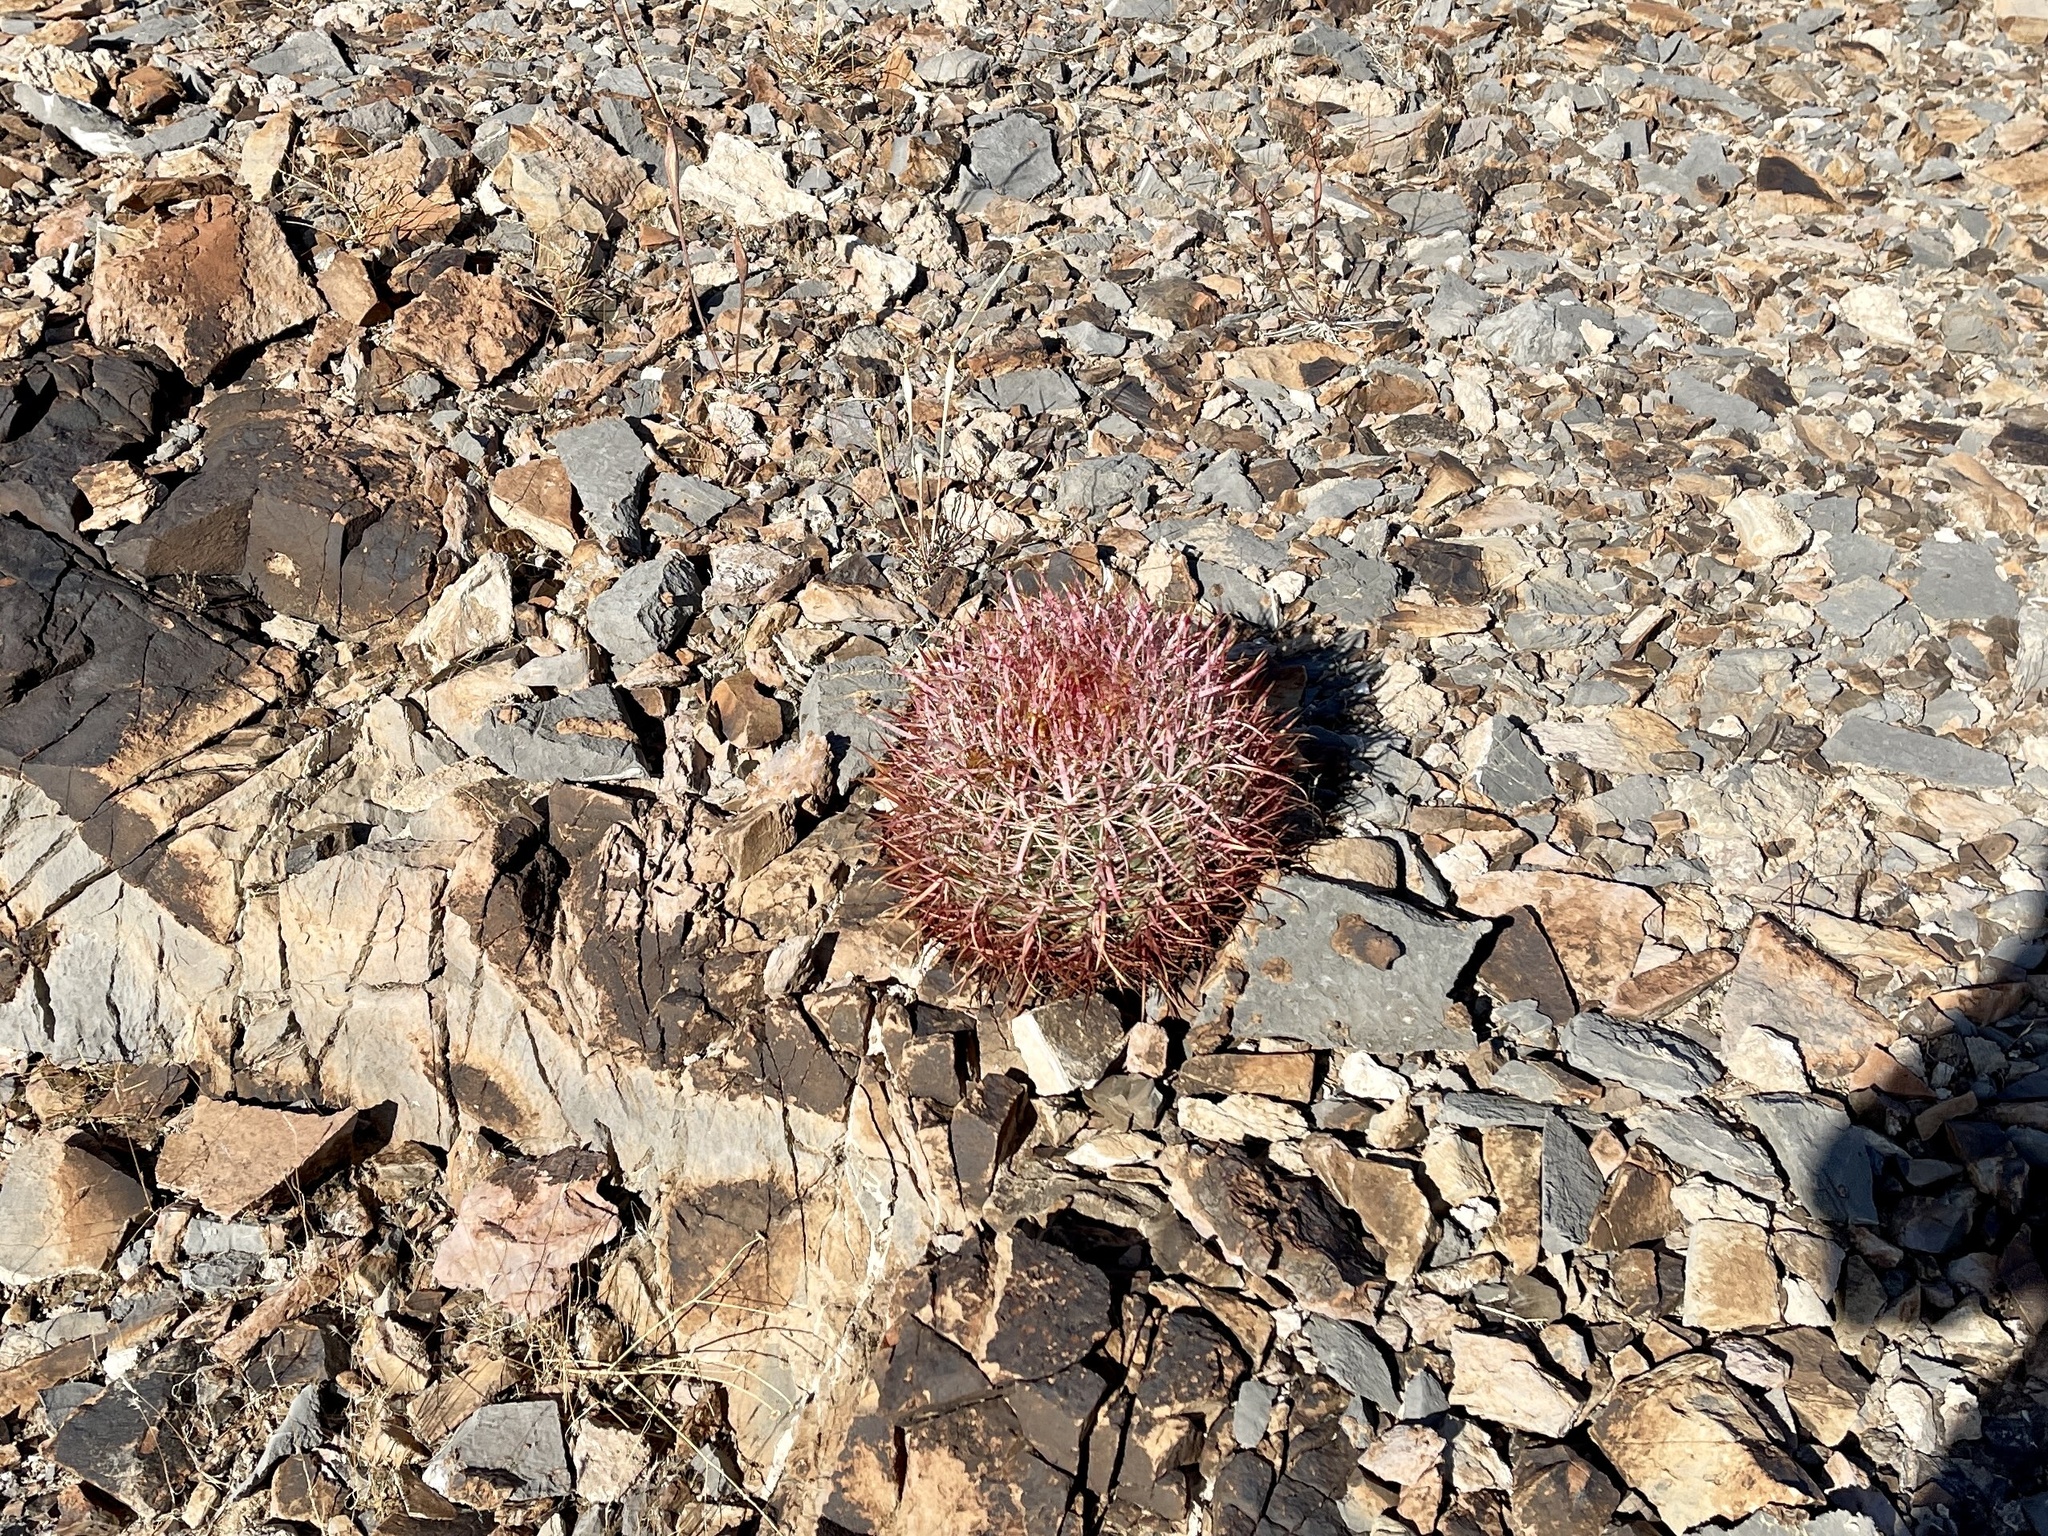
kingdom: Plantae
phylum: Tracheophyta
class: Magnoliopsida
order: Caryophyllales
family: Cactaceae
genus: Ferocactus
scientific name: Ferocactus cylindraceus
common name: California barrel cactus
